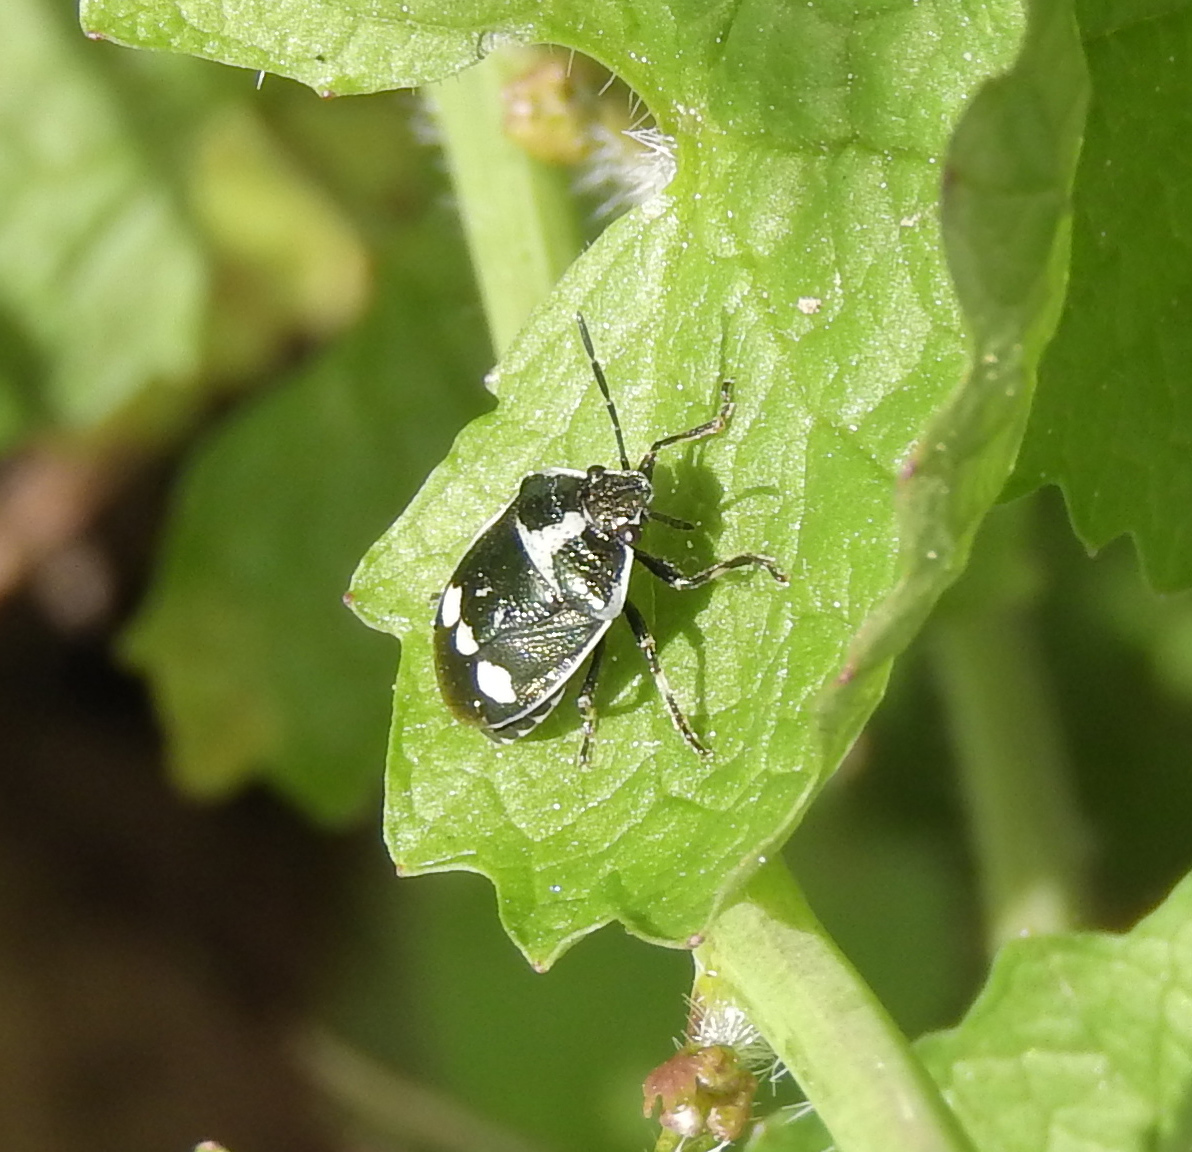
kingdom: Animalia
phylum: Arthropoda
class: Insecta
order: Hemiptera
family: Pentatomidae
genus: Eurydema
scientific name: Eurydema oleracea
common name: Cabbage bug
